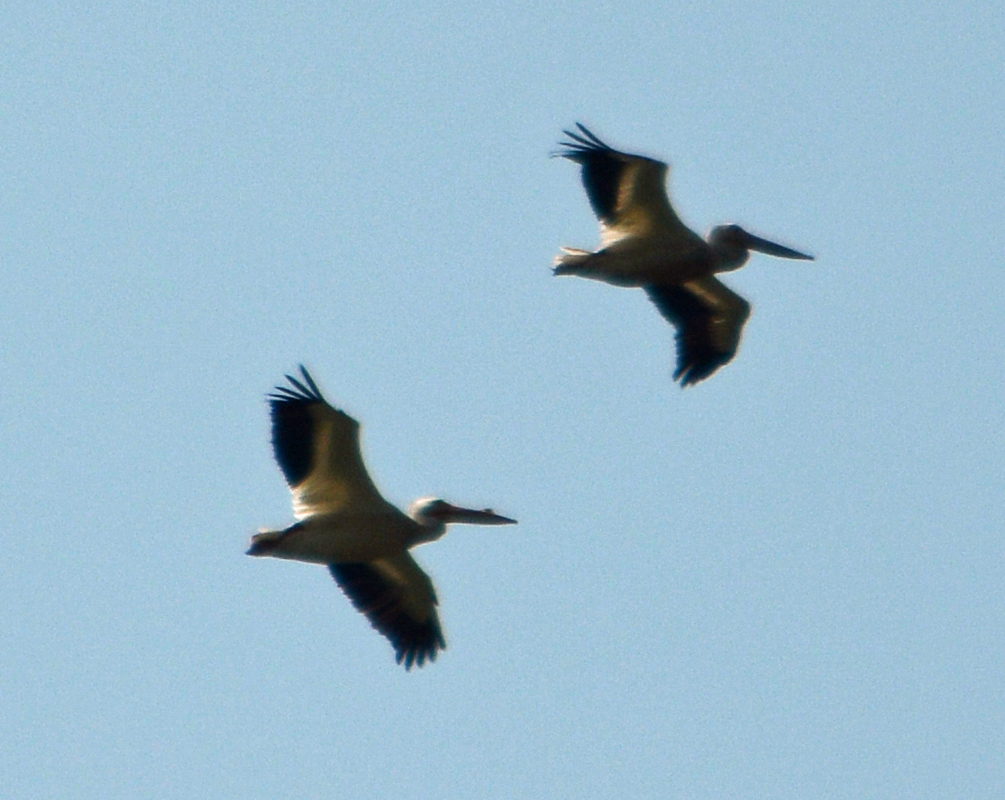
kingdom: Animalia
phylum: Chordata
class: Aves
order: Pelecaniformes
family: Pelecanidae
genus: Pelecanus
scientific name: Pelecanus erythrorhynchos
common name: American white pelican
